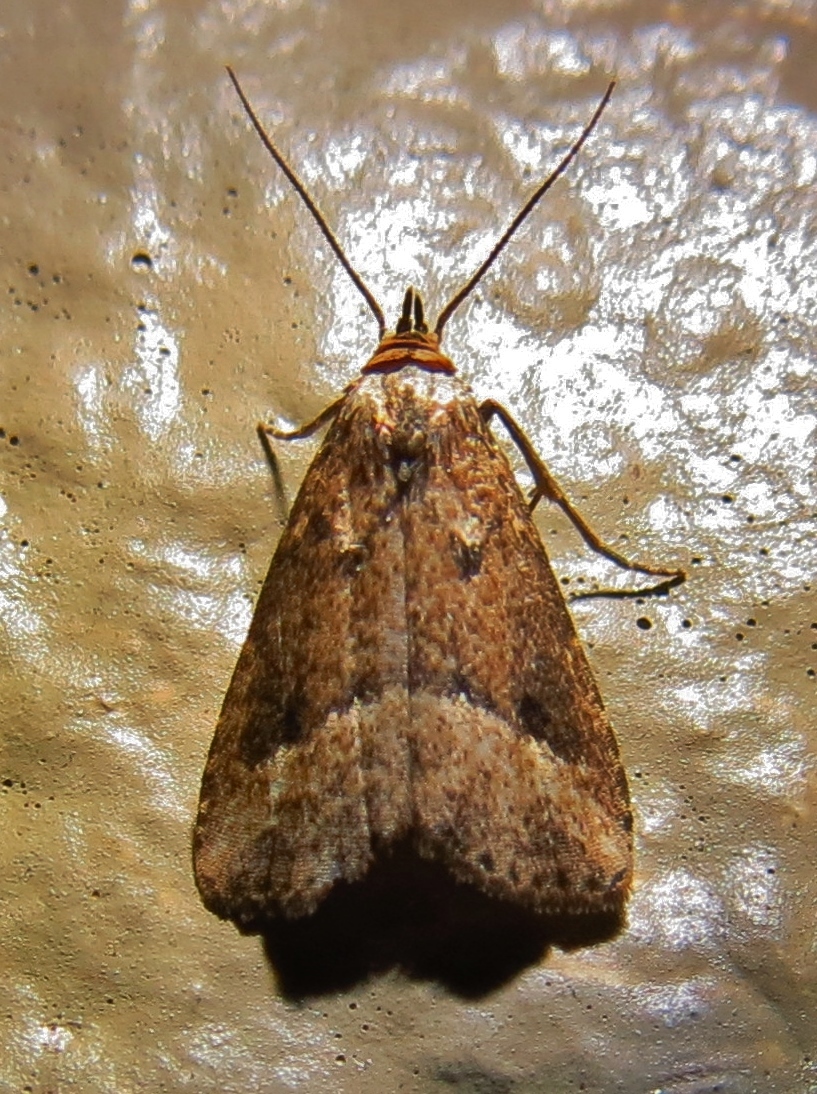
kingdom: Animalia
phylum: Arthropoda
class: Insecta
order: Lepidoptera
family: Erebidae
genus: Schrankia
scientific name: Schrankia
